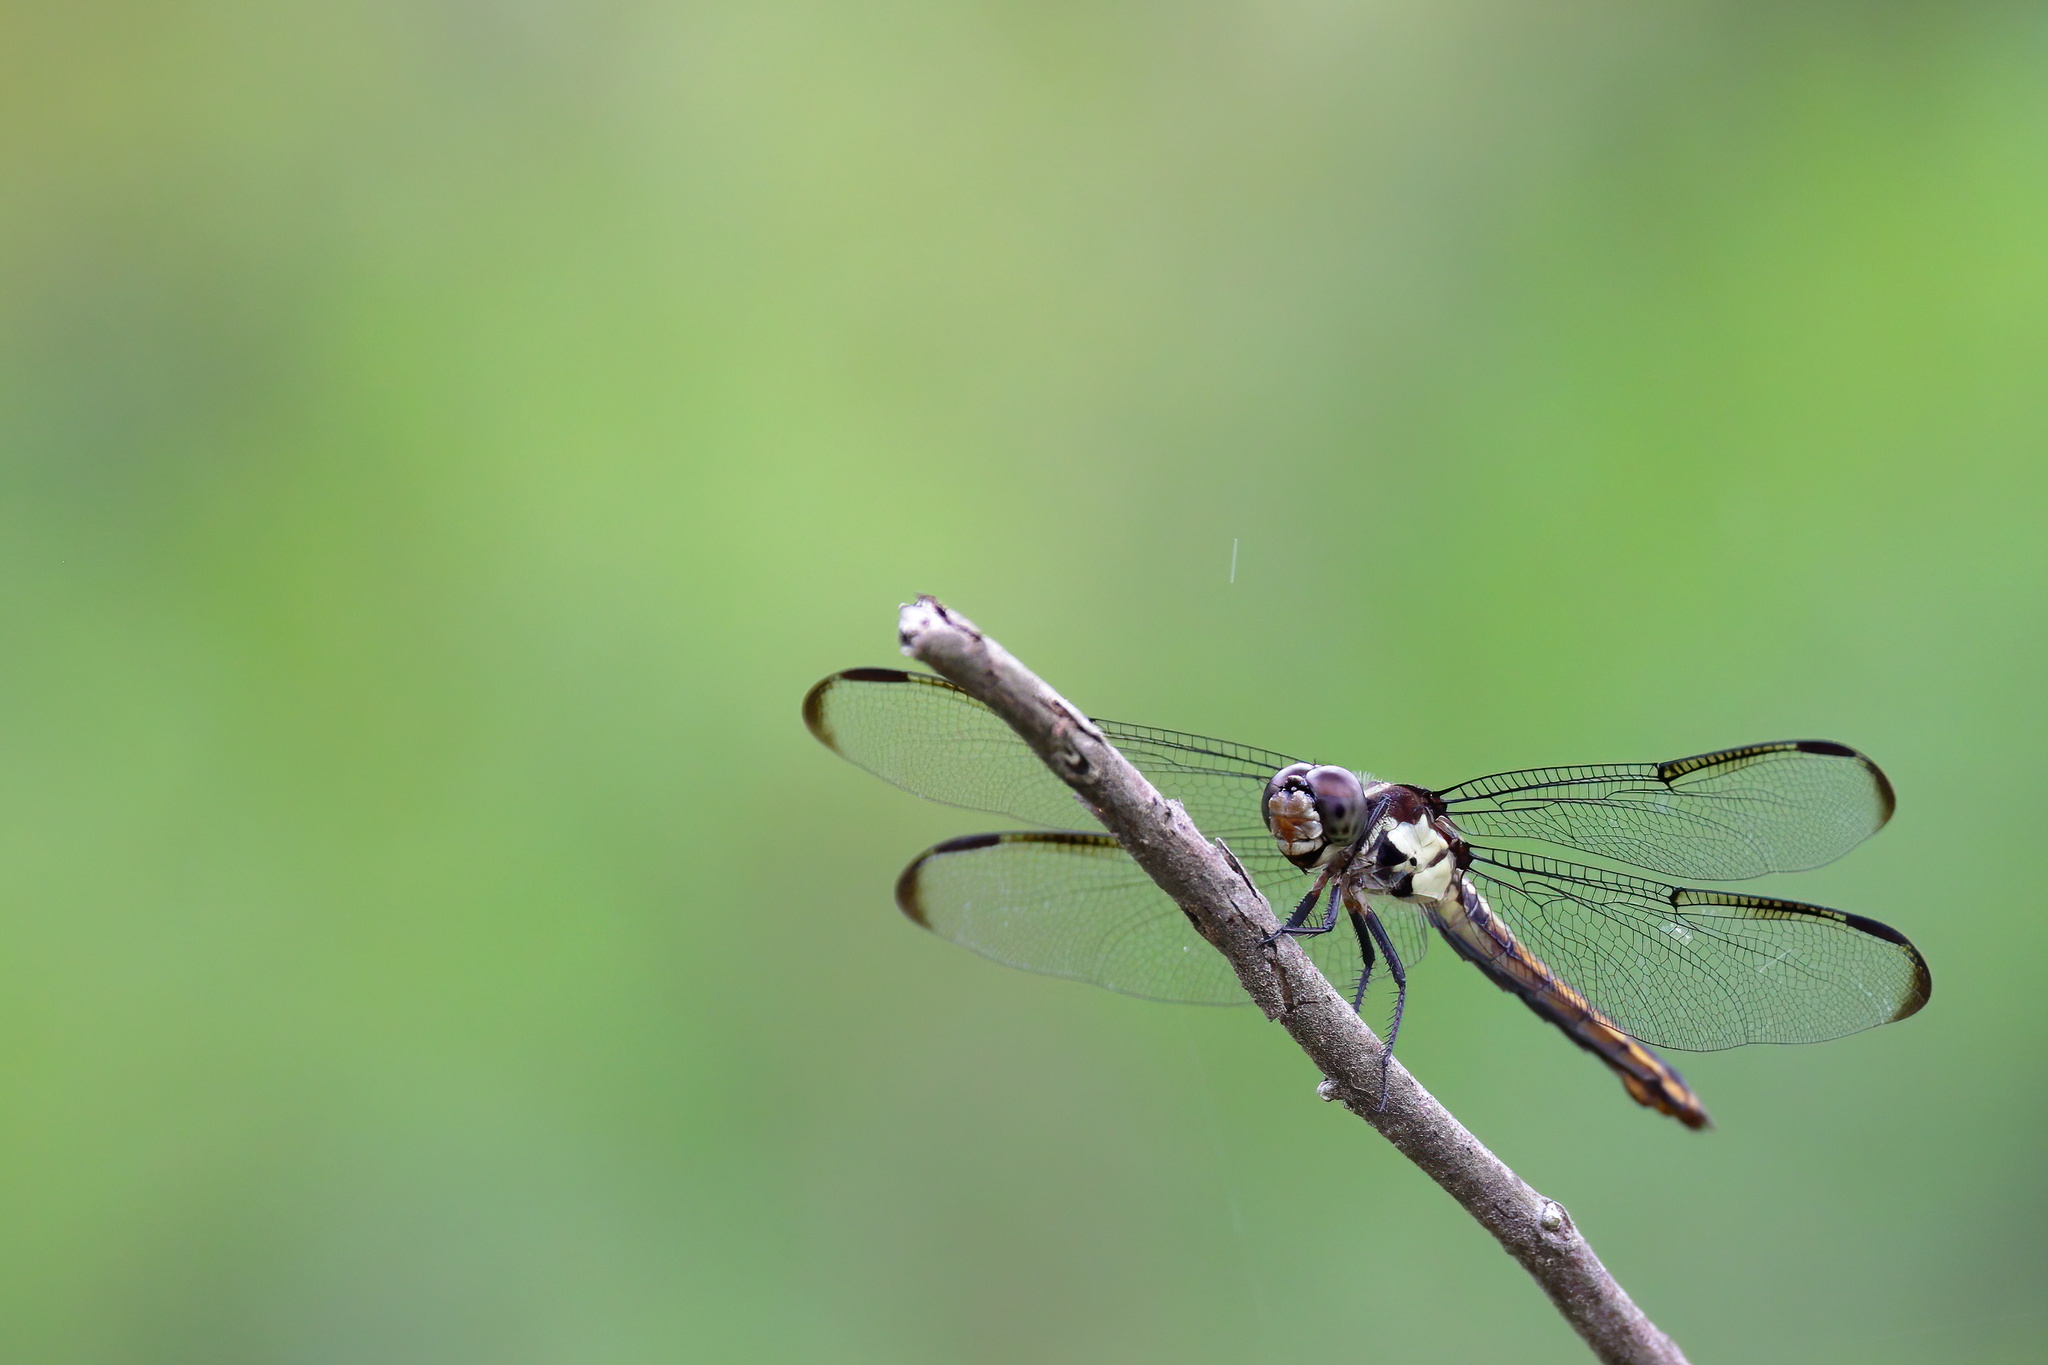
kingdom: Animalia
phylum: Arthropoda
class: Insecta
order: Odonata
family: Libellulidae
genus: Libellula
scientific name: Libellula incesta
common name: Slaty skimmer
